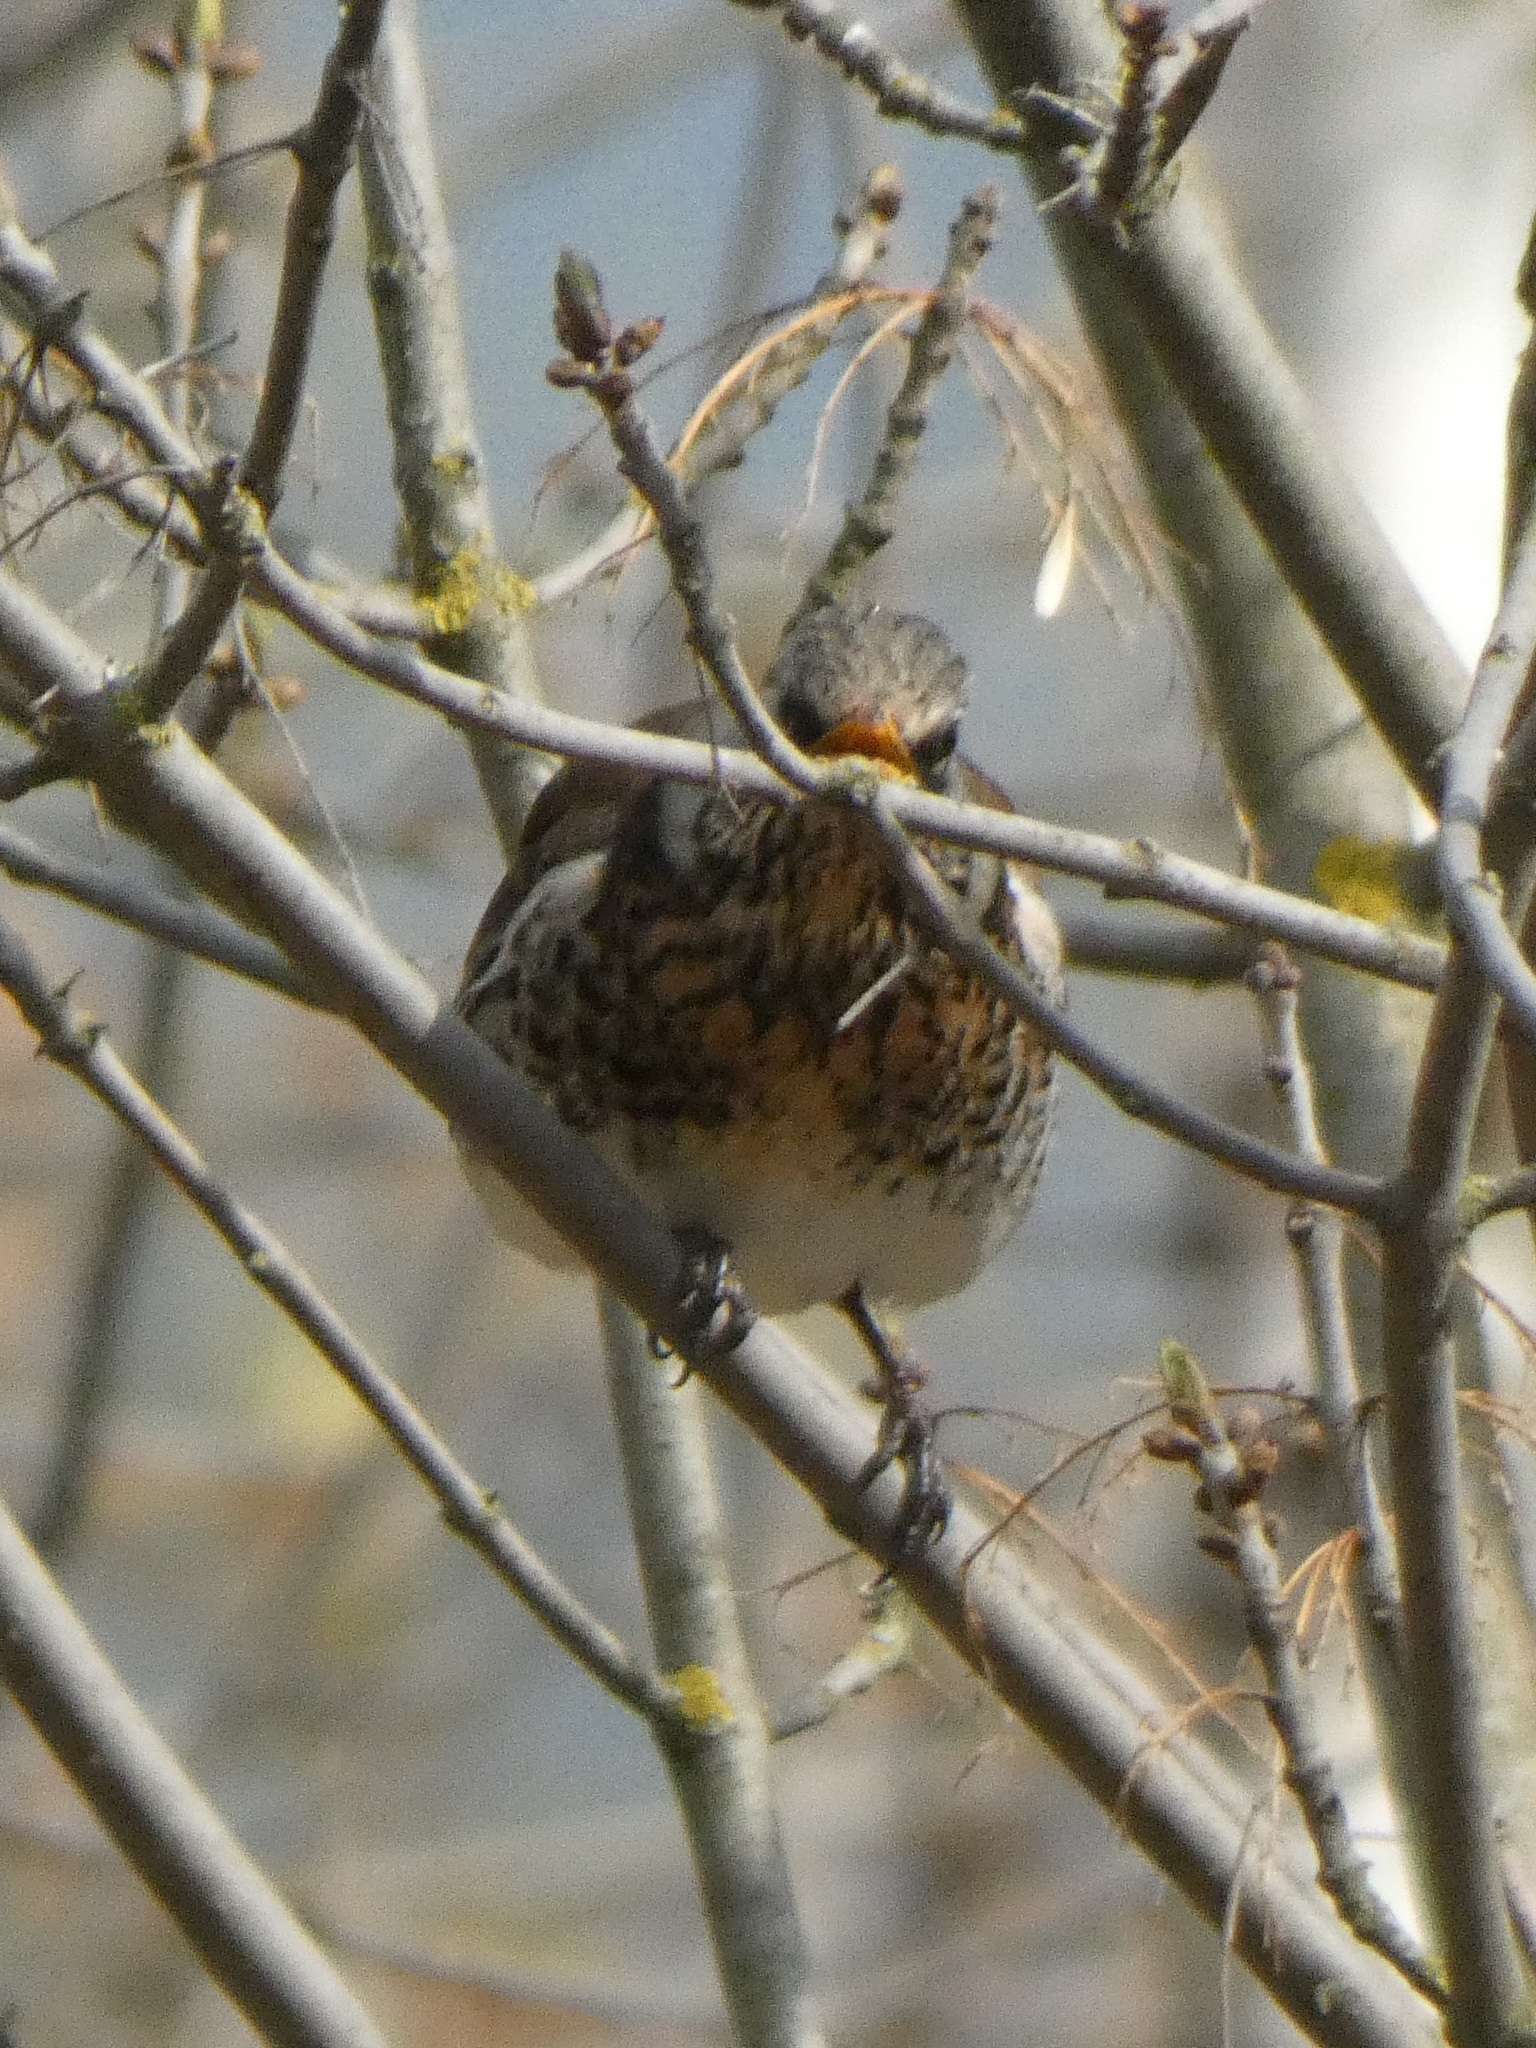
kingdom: Animalia
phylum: Chordata
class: Aves
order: Passeriformes
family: Turdidae
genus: Turdus
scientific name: Turdus pilaris
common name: Fieldfare
